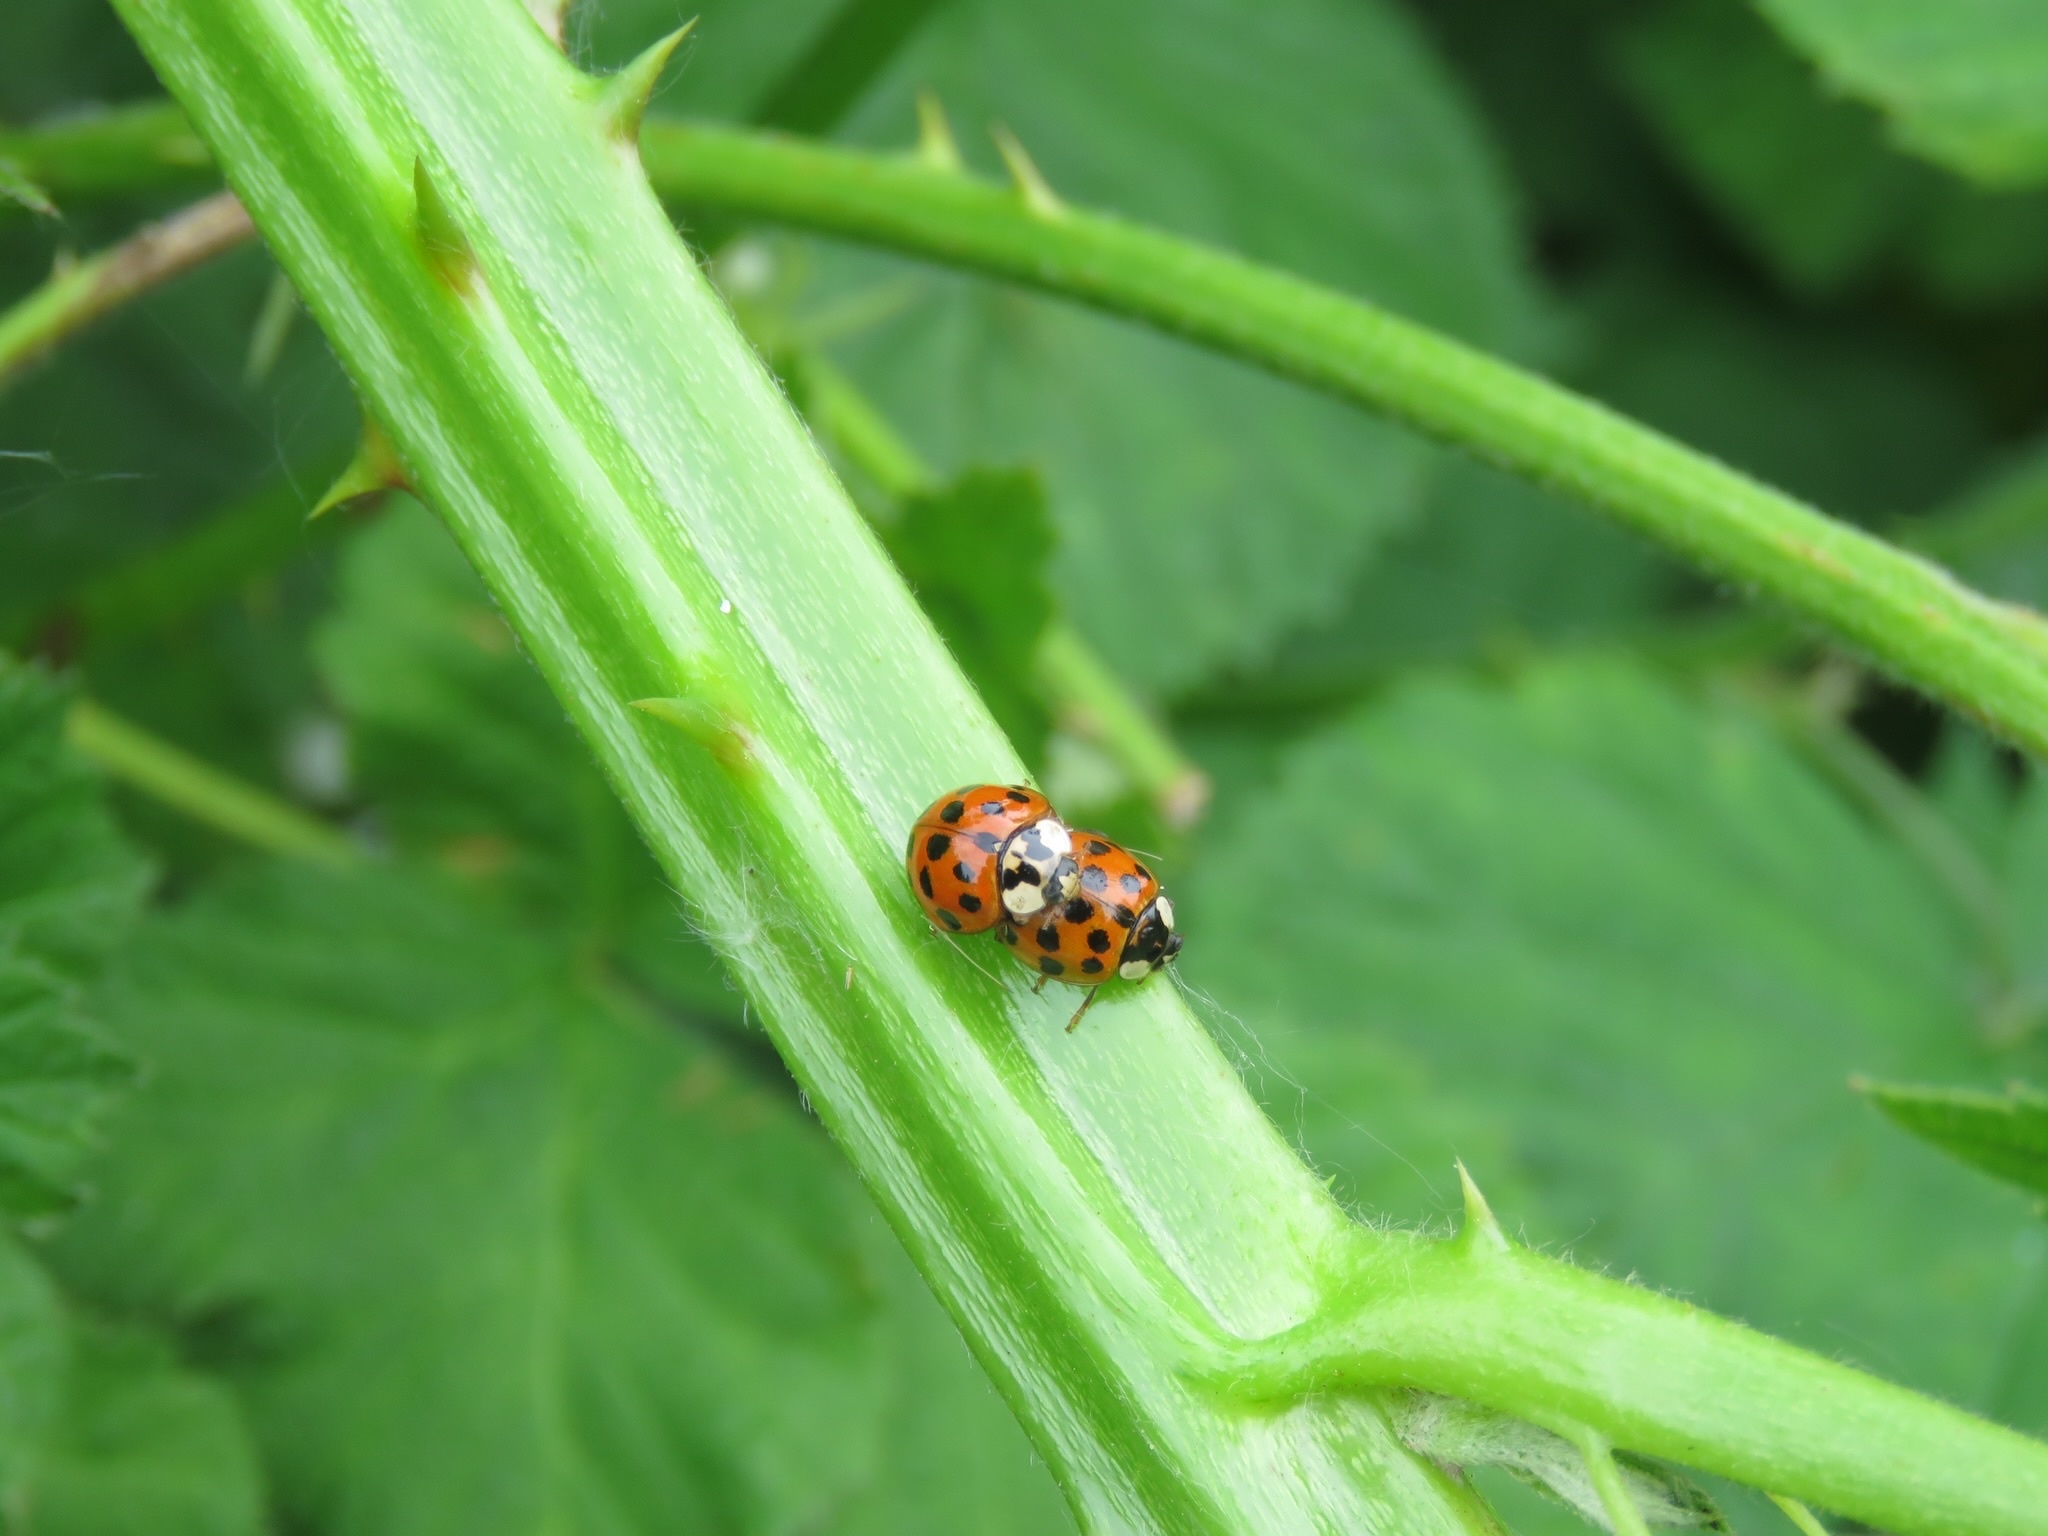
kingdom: Animalia
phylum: Arthropoda
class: Insecta
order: Coleoptera
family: Coccinellidae
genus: Harmonia
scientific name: Harmonia axyridis
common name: Harlequin ladybird
